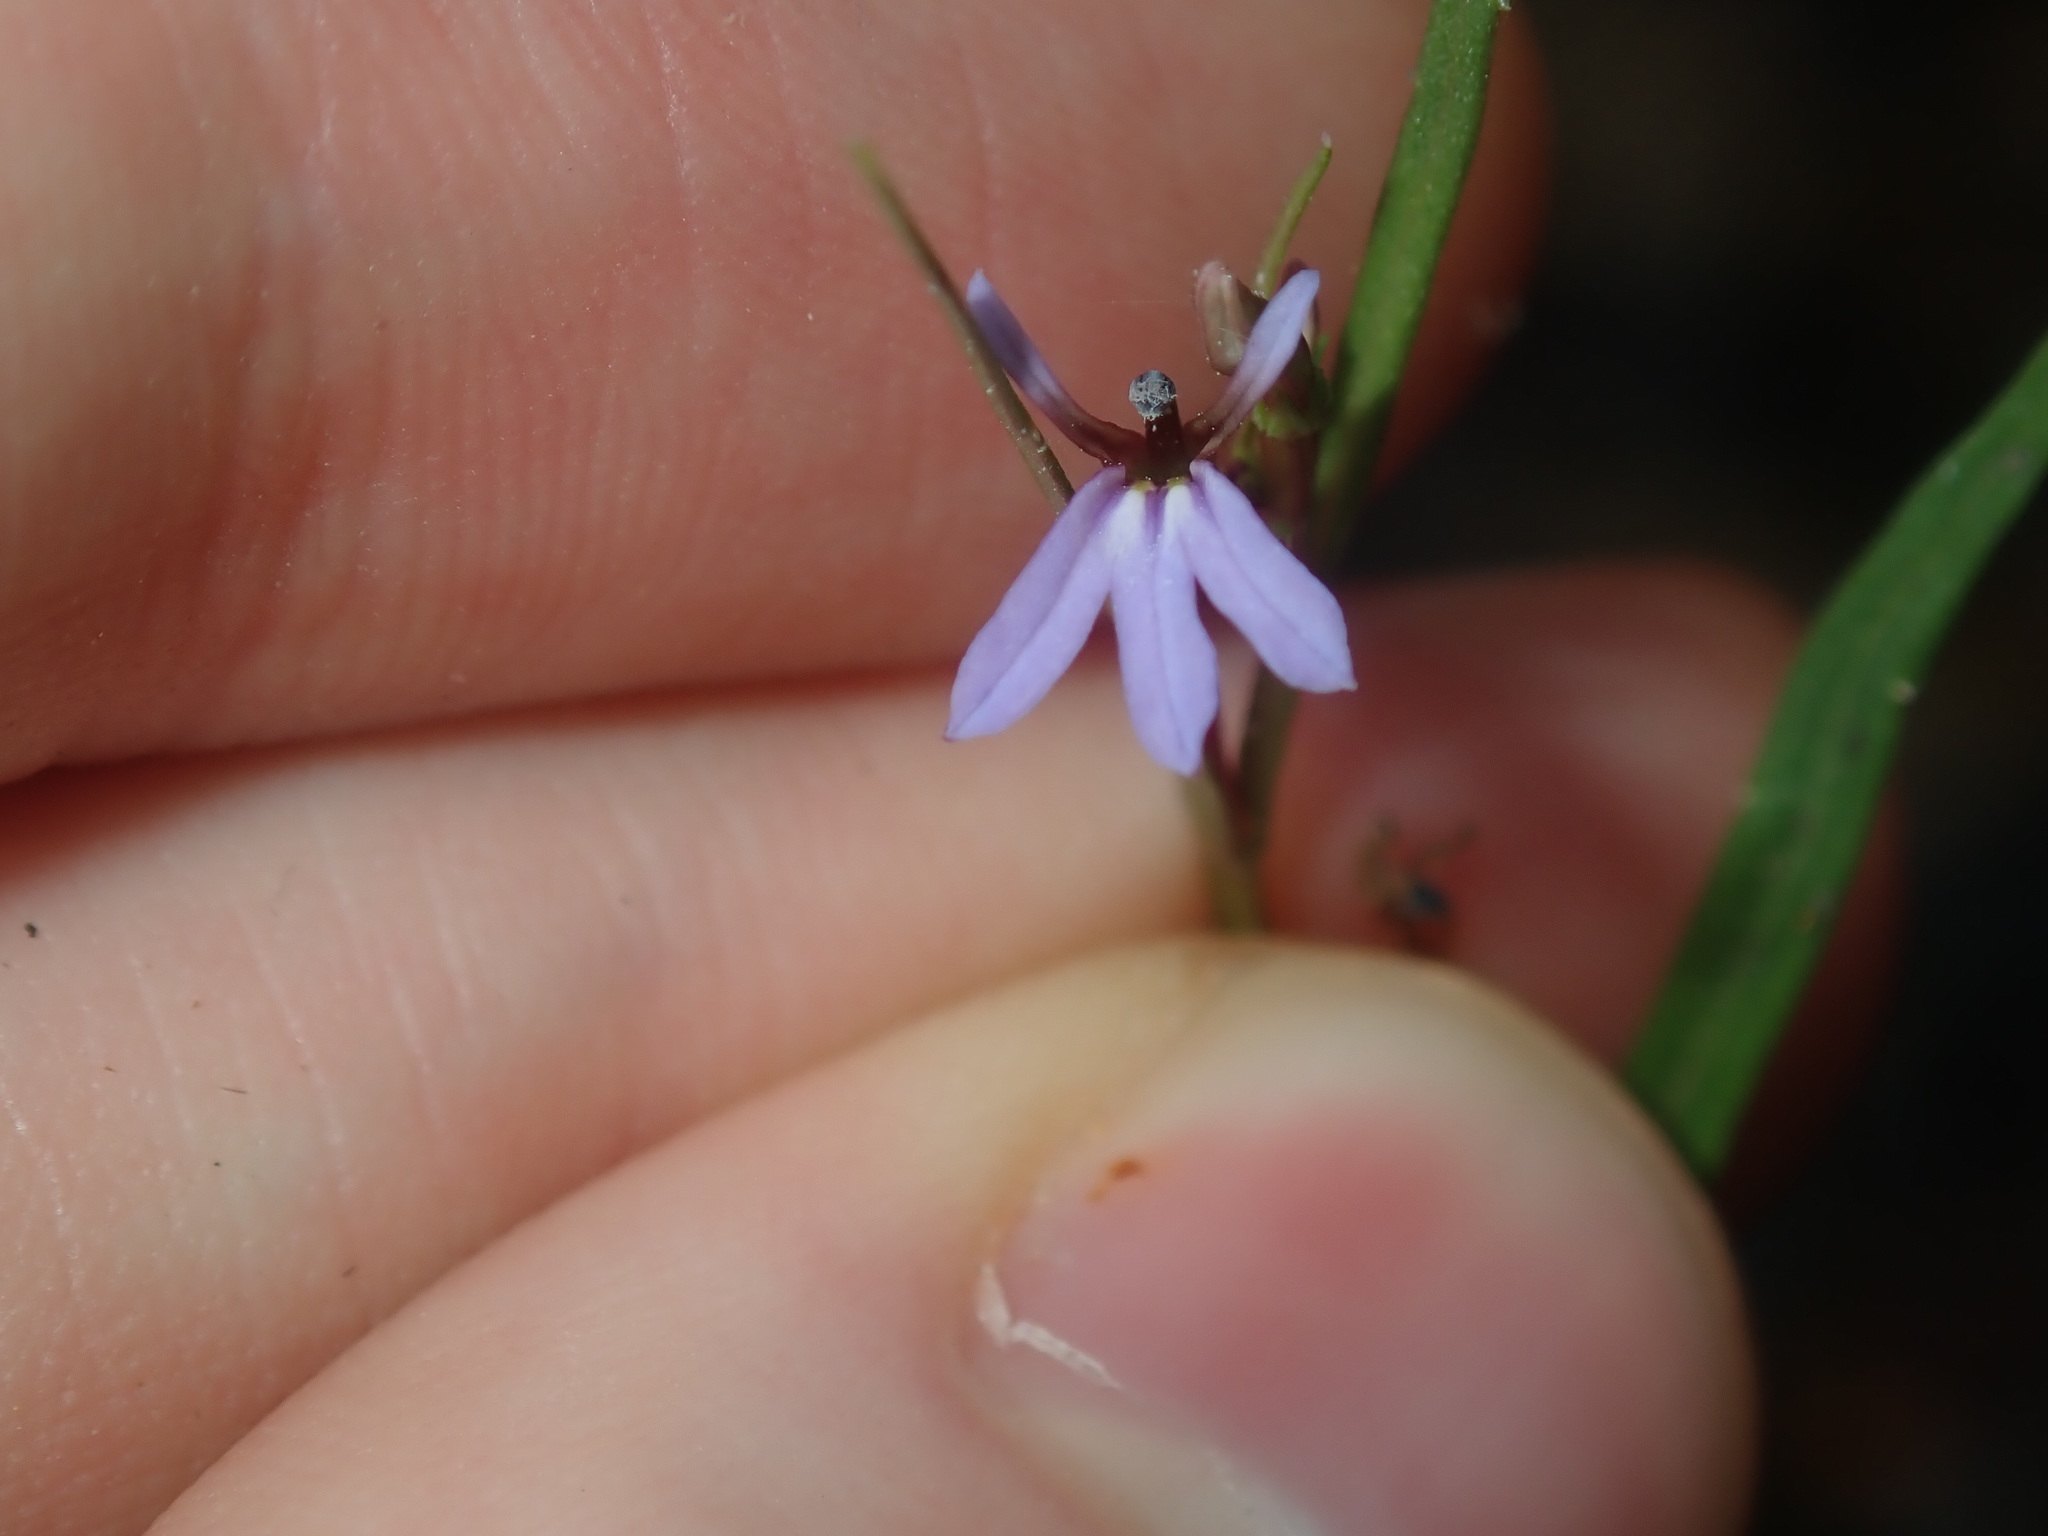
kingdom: Plantae
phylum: Tracheophyta
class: Magnoliopsida
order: Asterales
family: Campanulaceae
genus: Lobelia
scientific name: Lobelia anceps
